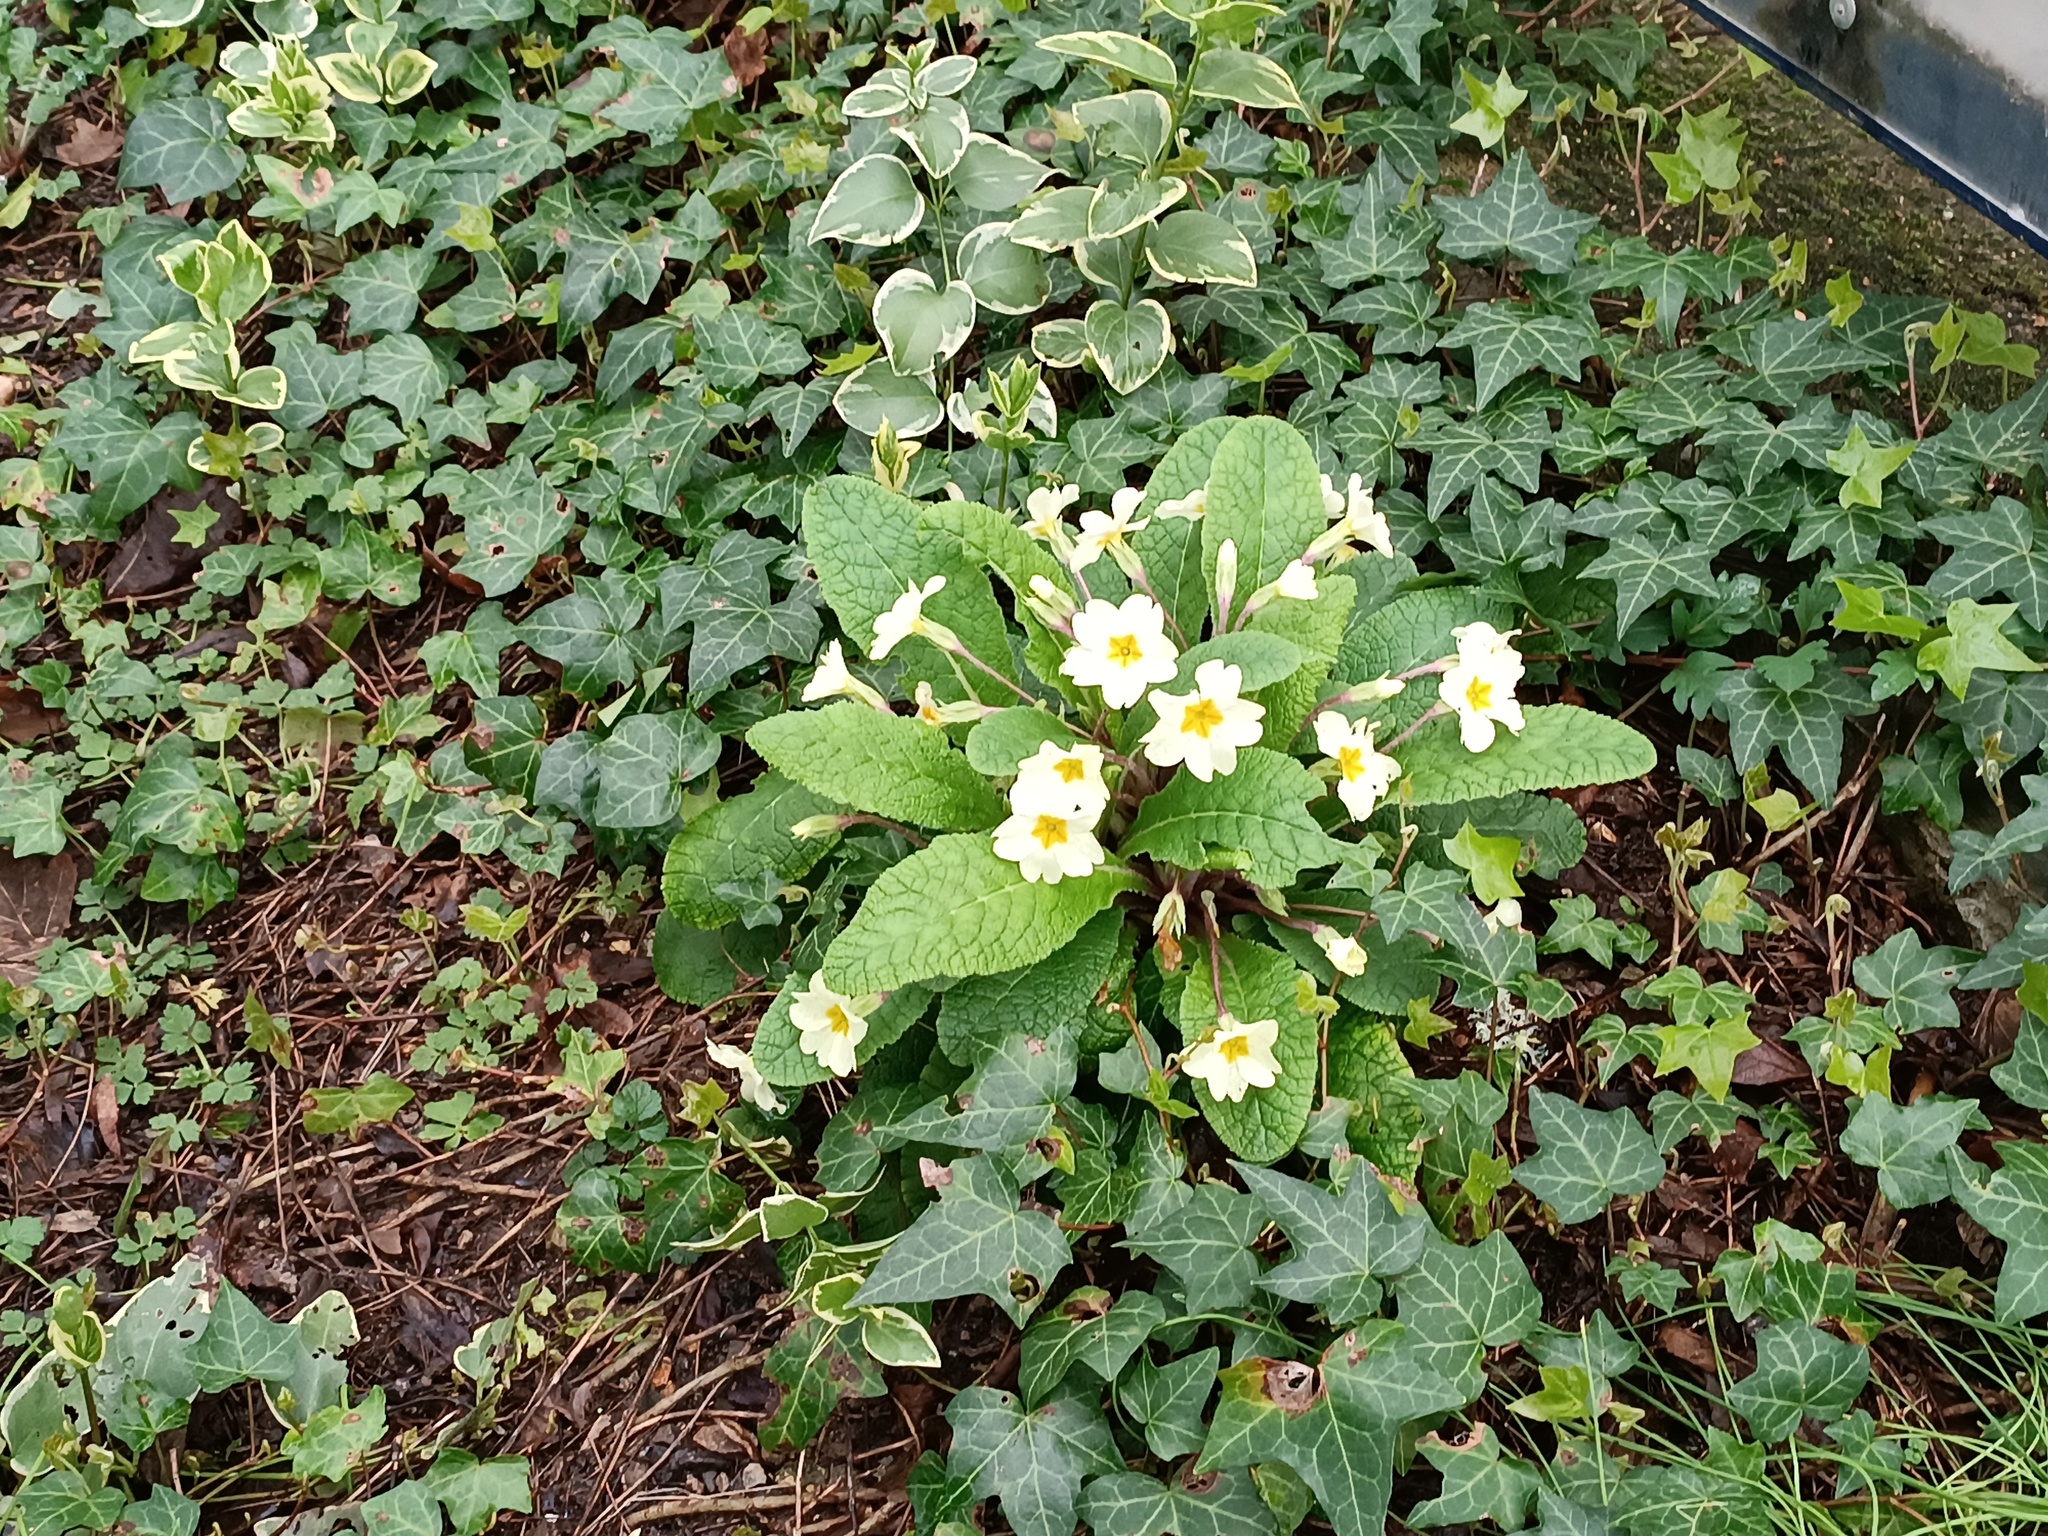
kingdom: Plantae
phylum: Tracheophyta
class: Magnoliopsida
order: Ericales
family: Primulaceae
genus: Primula
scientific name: Primula vulgaris
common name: Primrose
